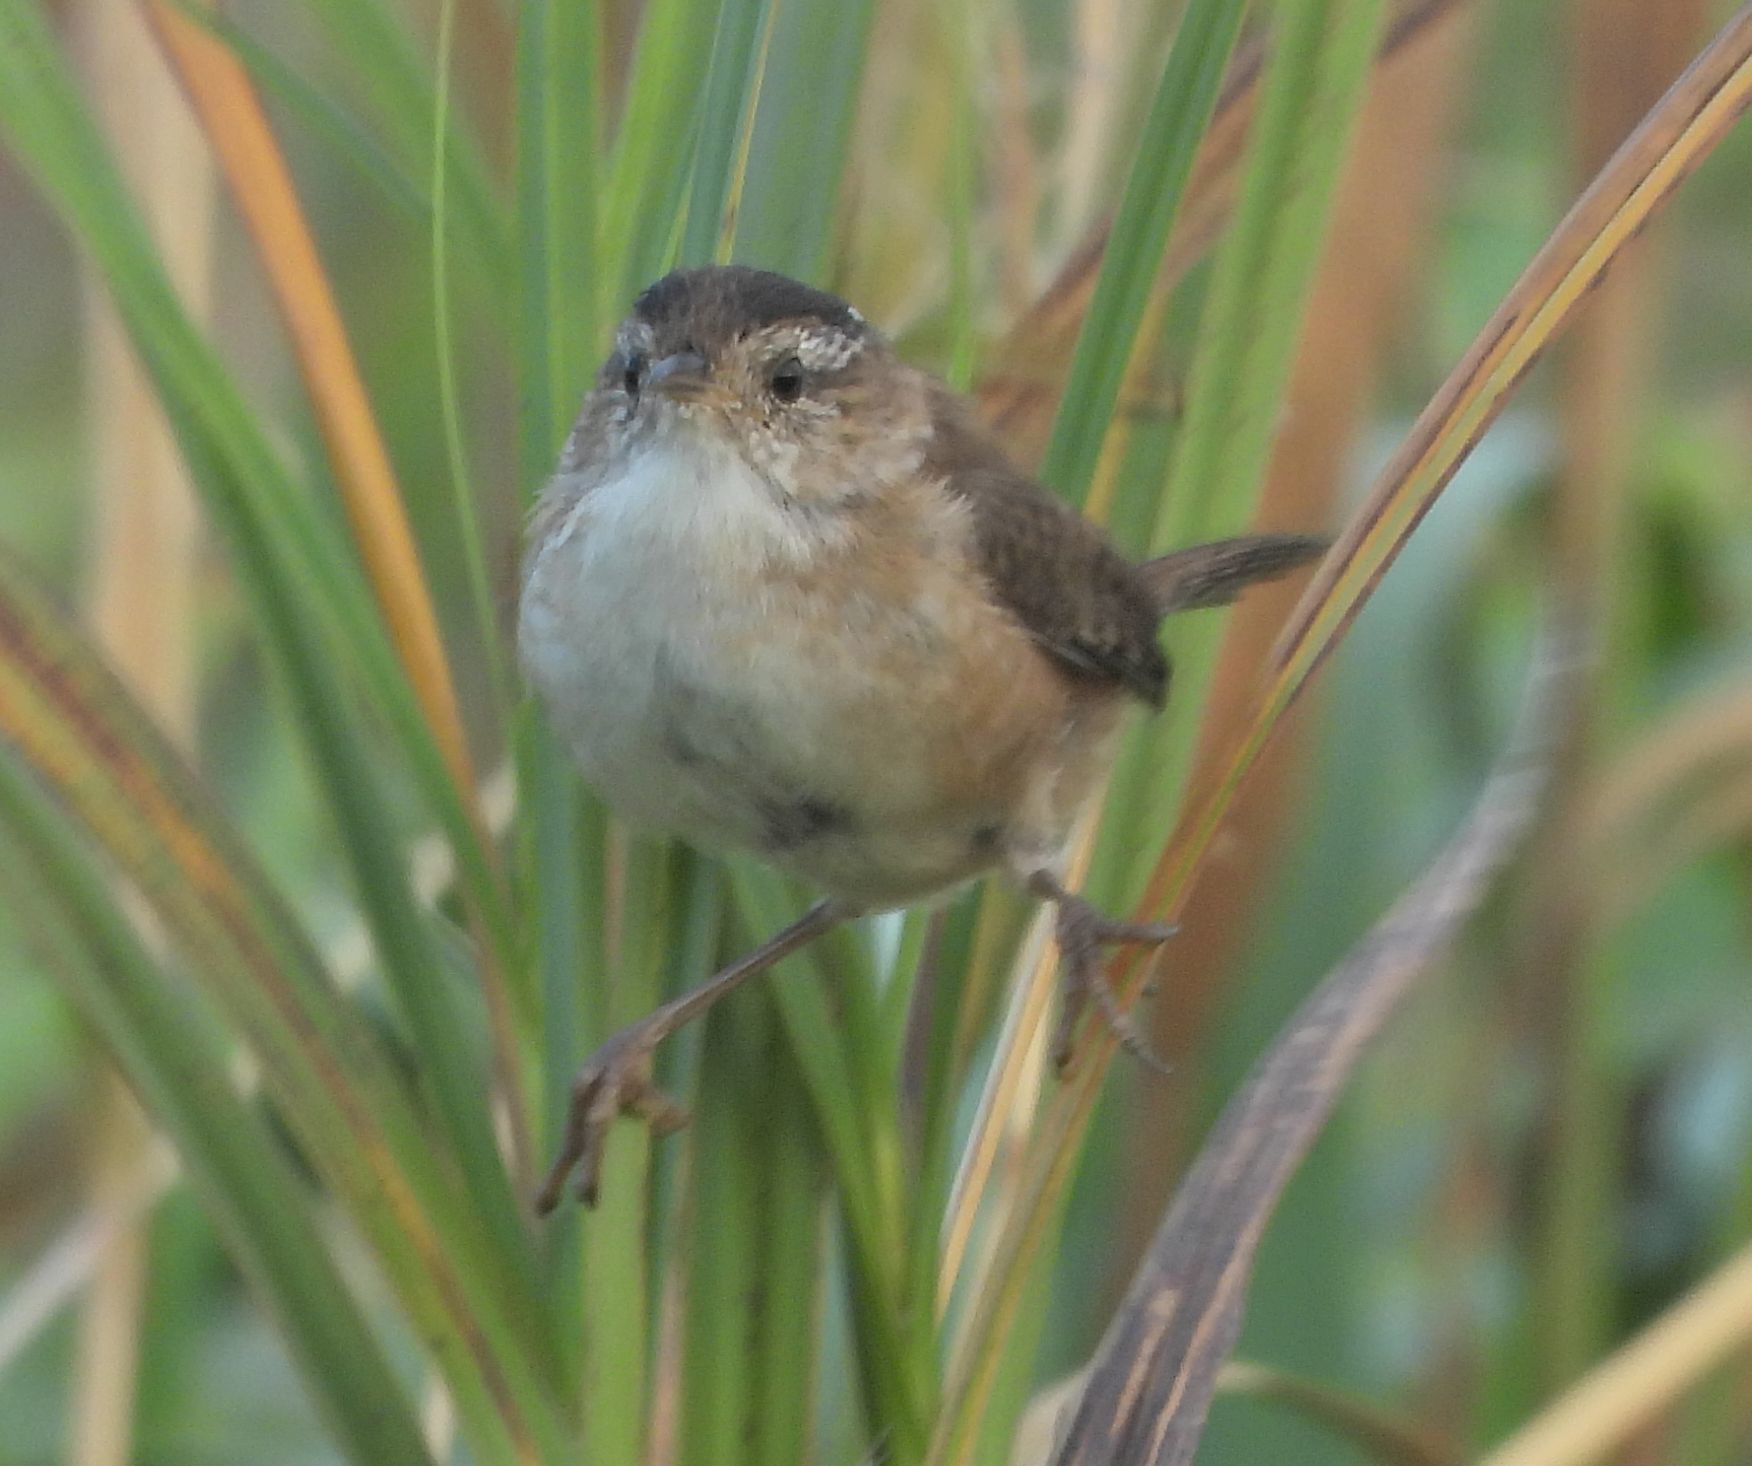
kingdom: Animalia
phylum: Chordata
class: Aves
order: Passeriformes
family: Troglodytidae
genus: Cistothorus
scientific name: Cistothorus palustris
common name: Marsh wren
